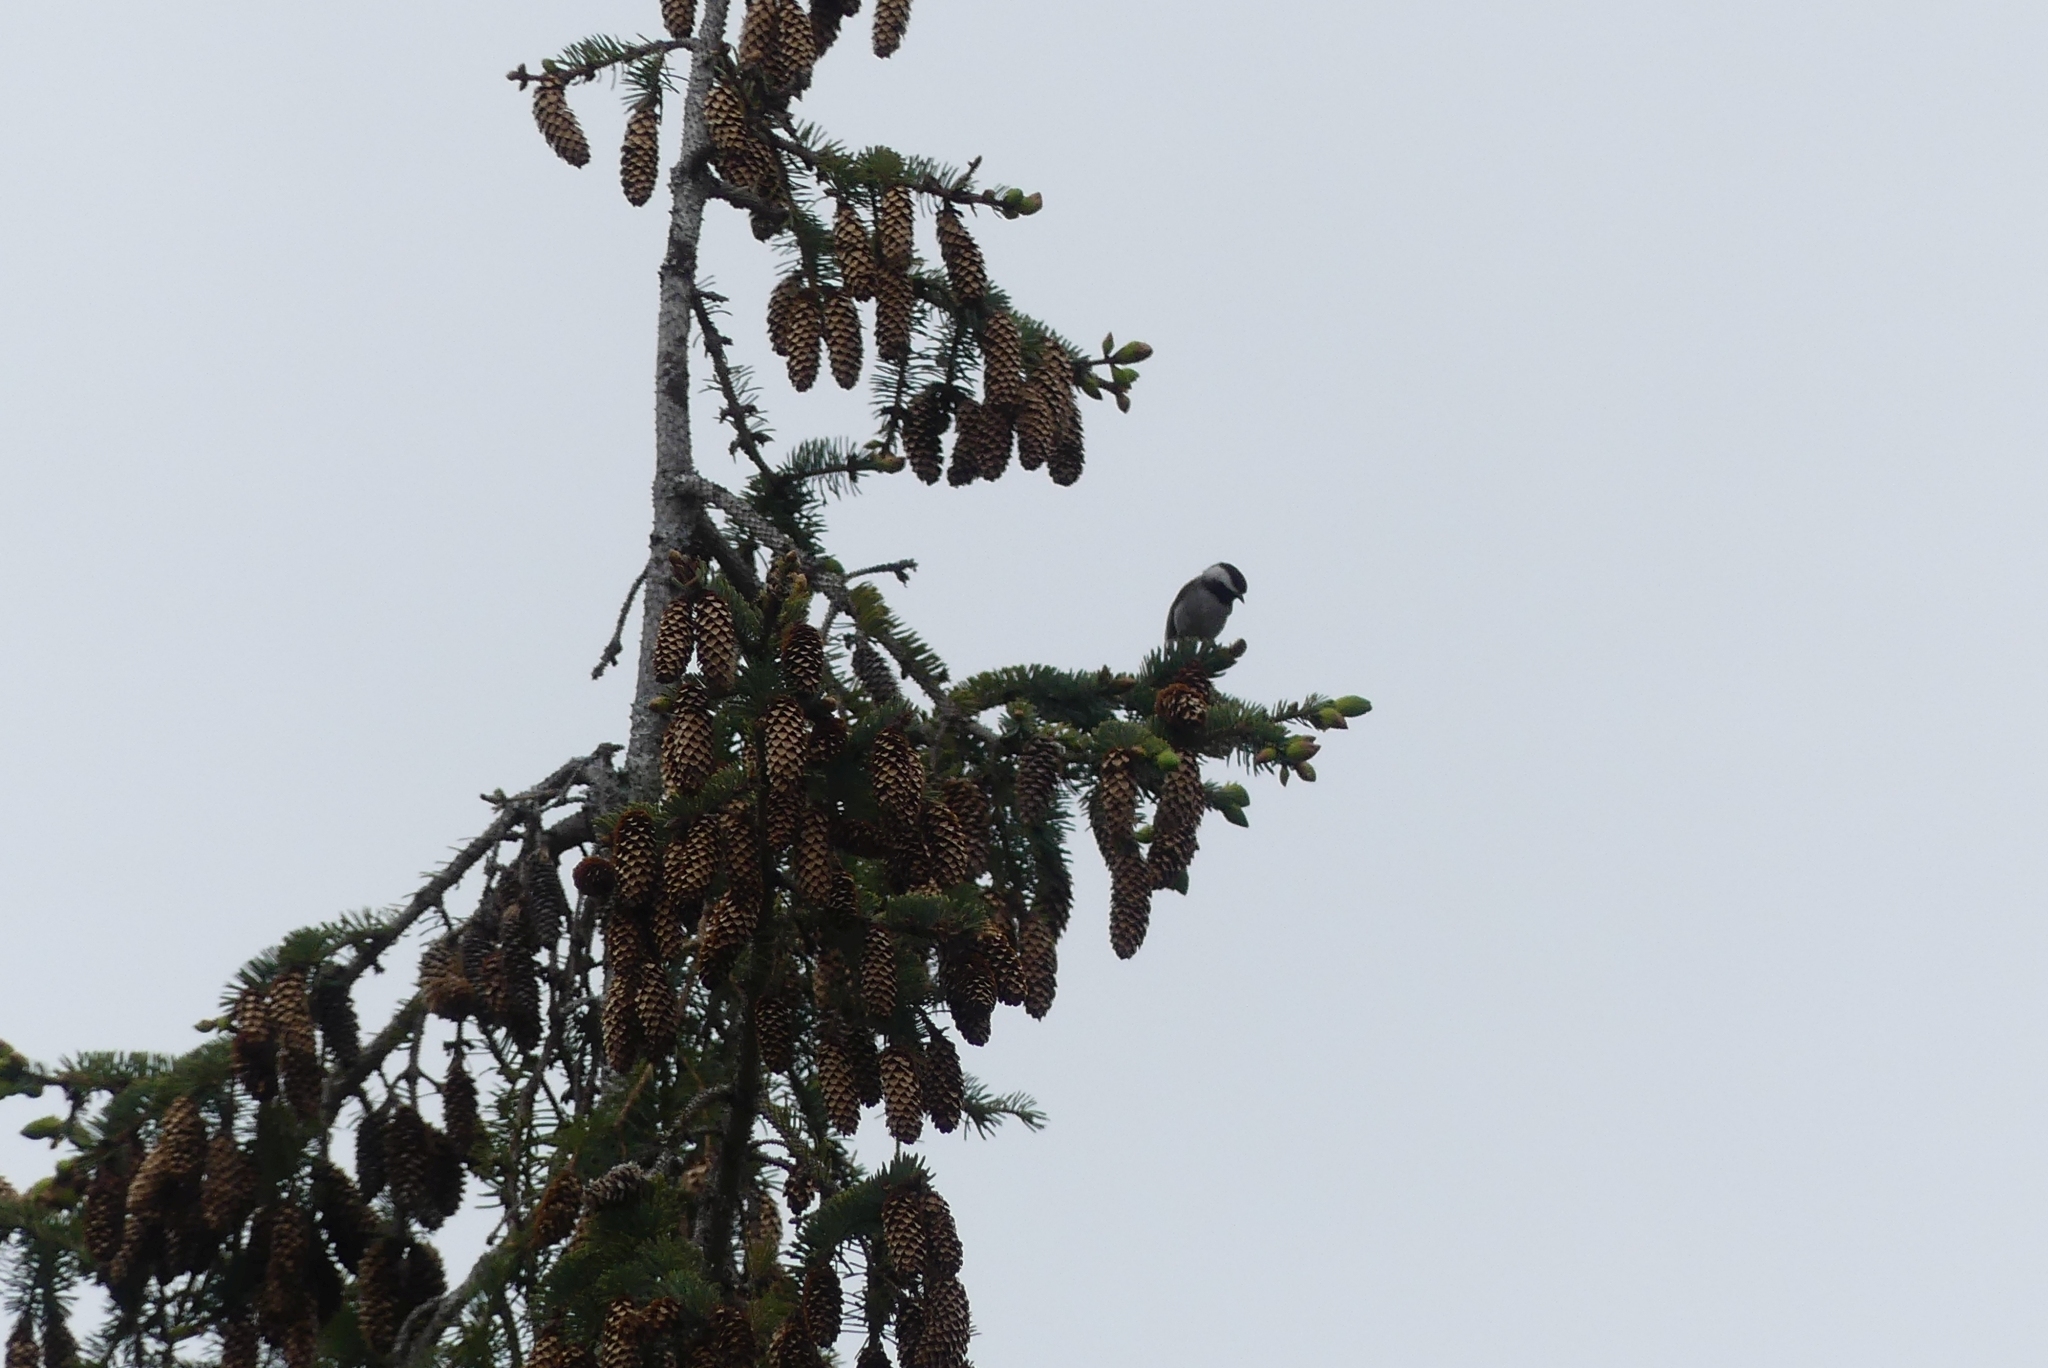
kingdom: Animalia
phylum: Chordata
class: Aves
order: Passeriformes
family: Paridae
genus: Poecile
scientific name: Poecile rufescens
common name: Chestnut-backed chickadee
